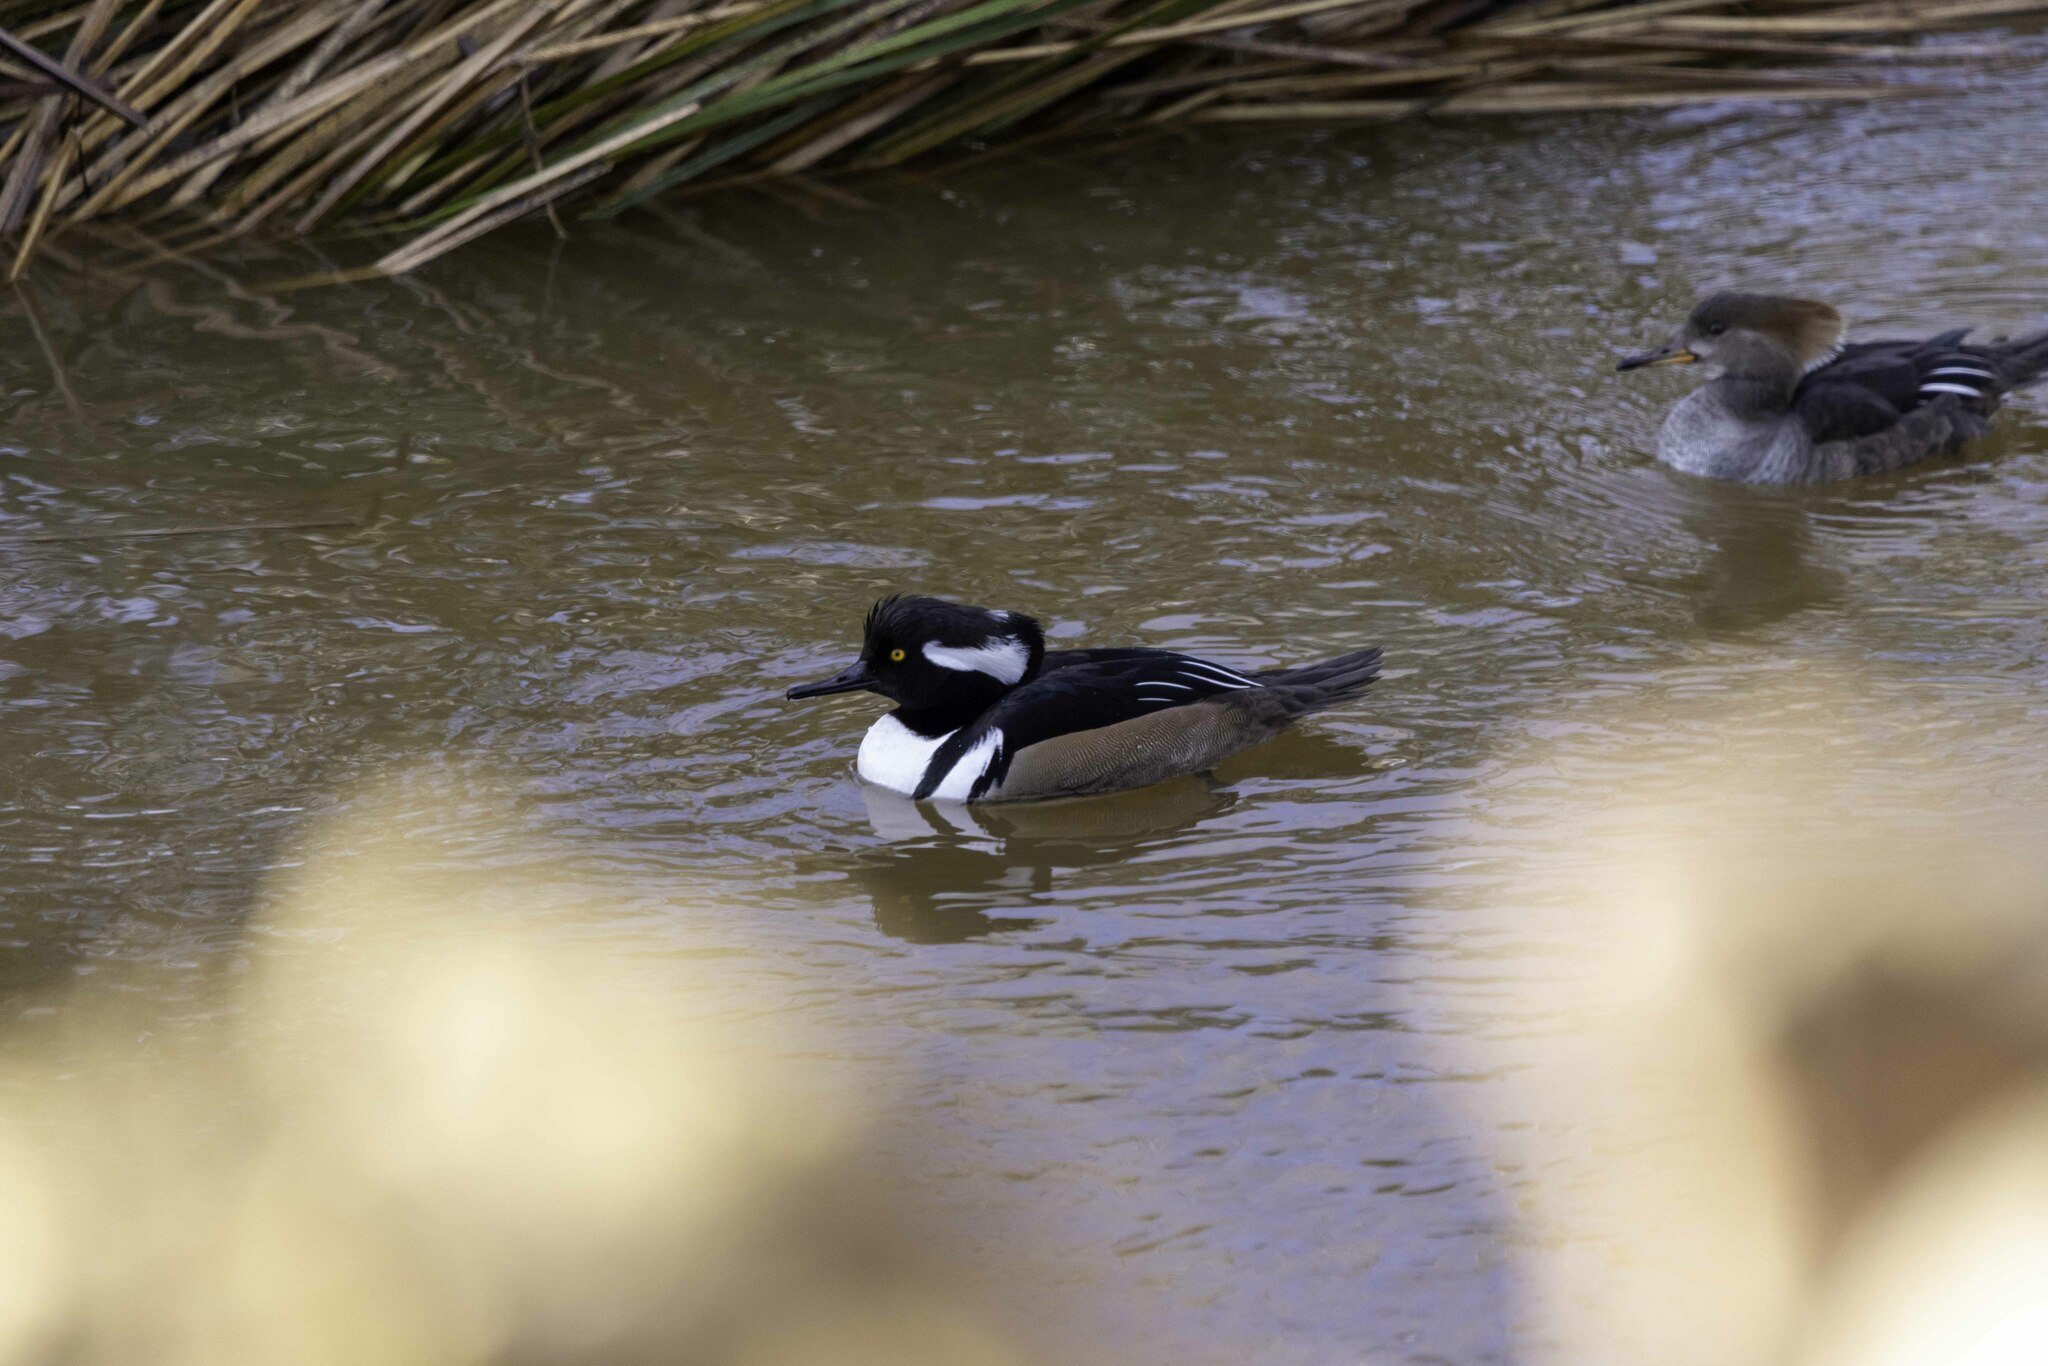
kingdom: Animalia
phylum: Chordata
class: Aves
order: Anseriformes
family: Anatidae
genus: Lophodytes
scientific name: Lophodytes cucullatus
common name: Hooded merganser
